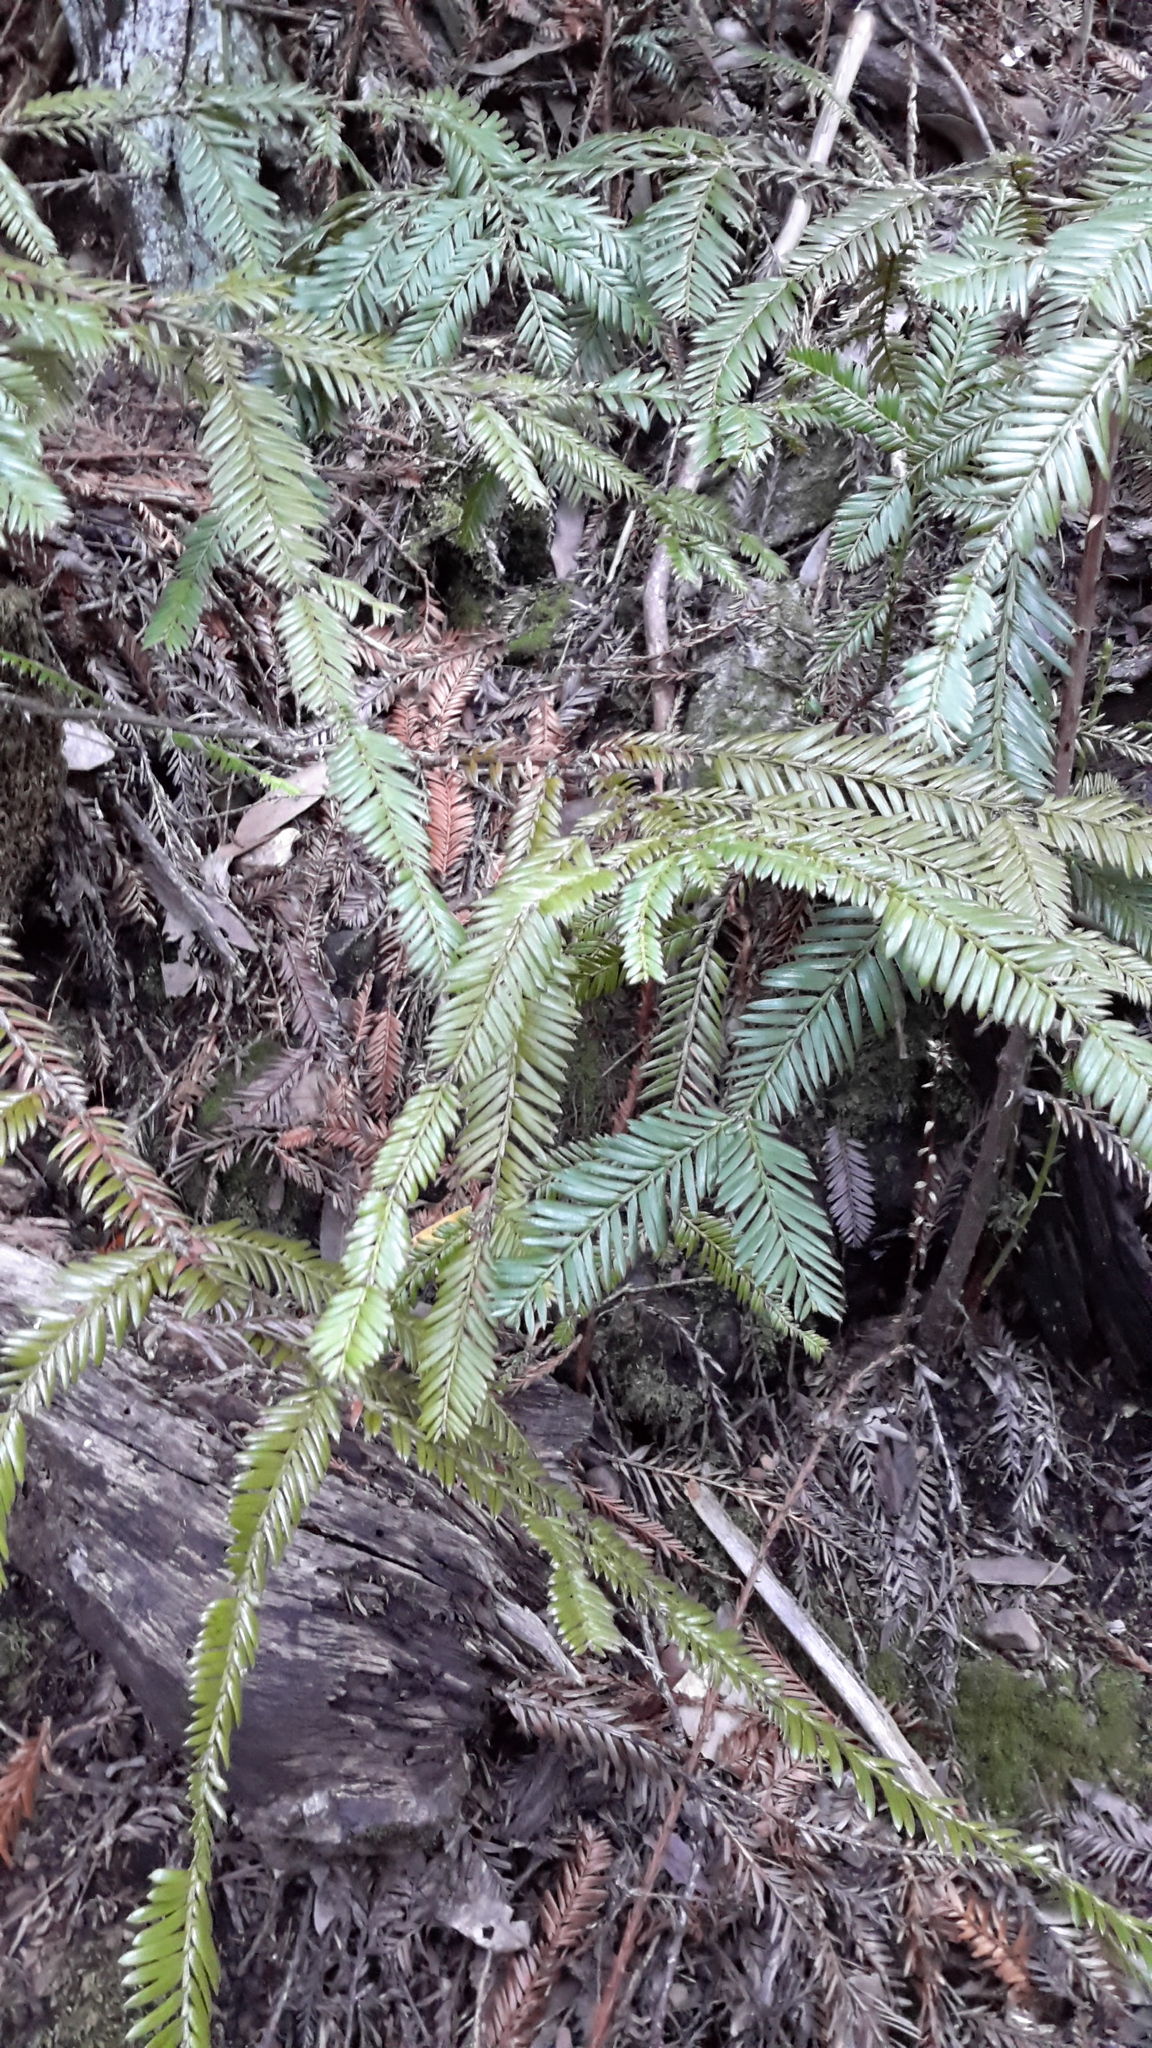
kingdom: Plantae
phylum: Tracheophyta
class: Pinopsida
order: Pinales
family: Cupressaceae
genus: Sequoia
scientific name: Sequoia sempervirens
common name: Coast redwood
